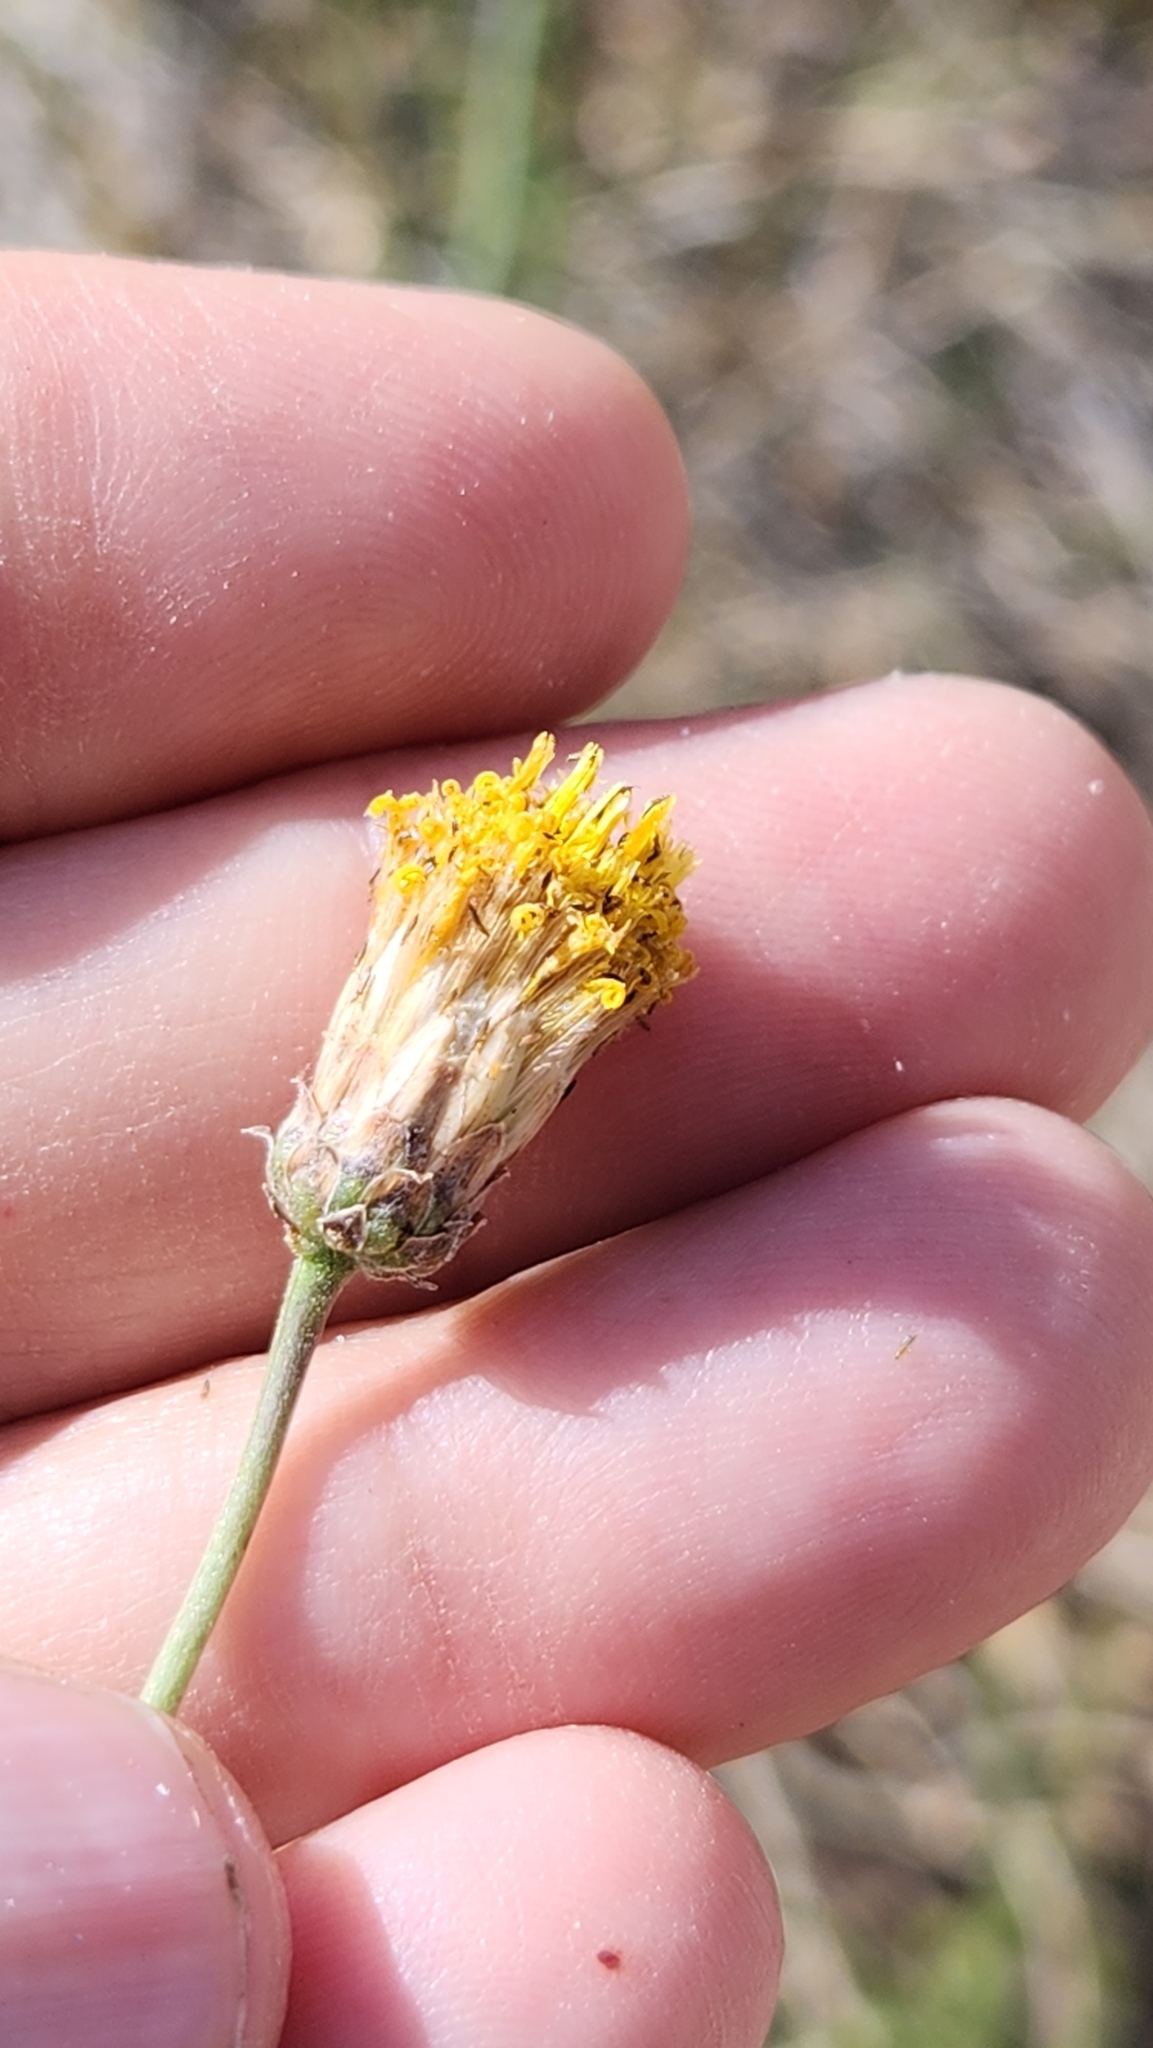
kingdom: Plantae
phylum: Tracheophyta
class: Magnoliopsida
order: Asterales
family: Asteraceae
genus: Bebbia
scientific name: Bebbia juncea
